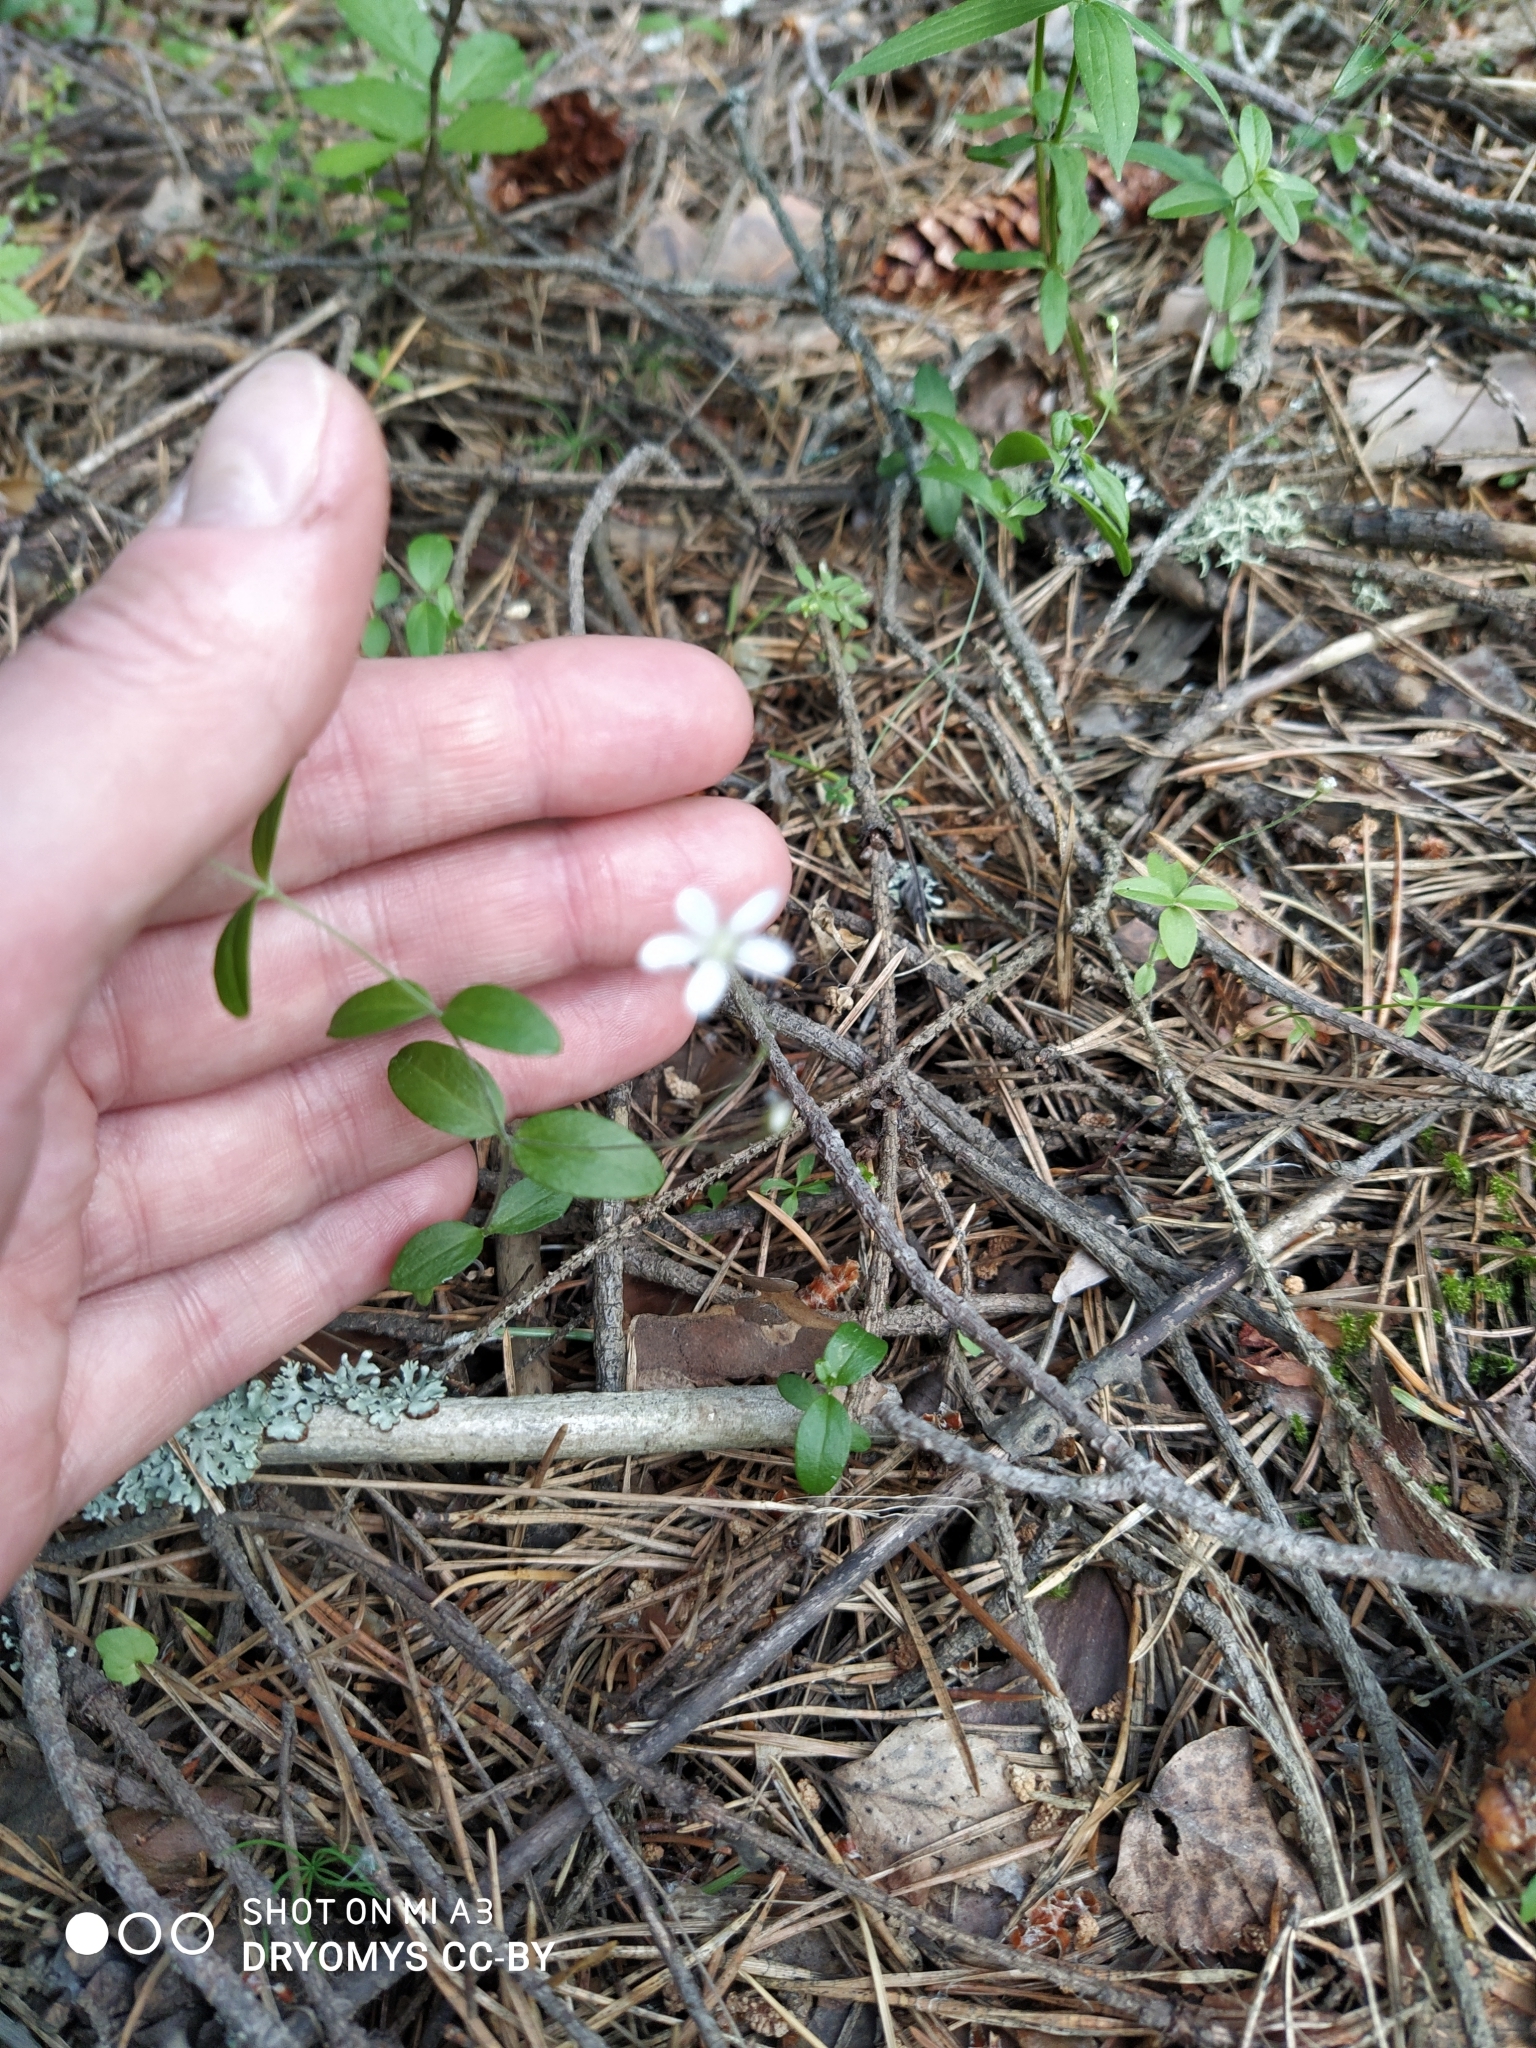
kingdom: Plantae
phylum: Tracheophyta
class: Magnoliopsida
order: Caryophyllales
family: Caryophyllaceae
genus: Moehringia
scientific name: Moehringia lateriflora
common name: Blunt-leaved sandwort
